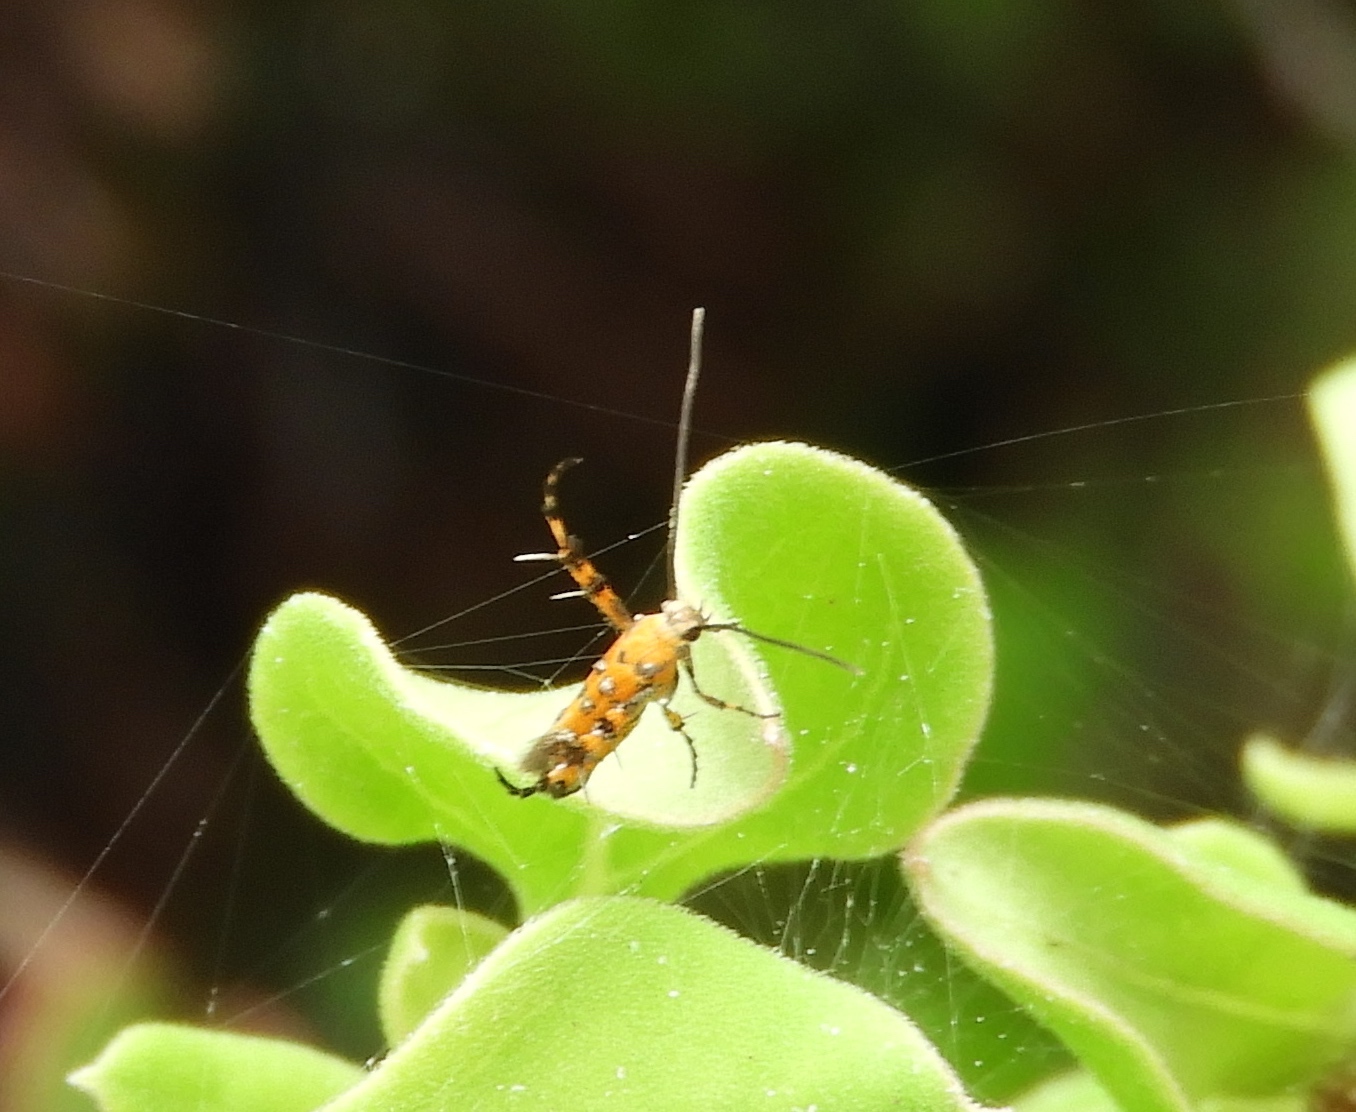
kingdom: Animalia
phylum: Arthropoda
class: Insecta
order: Lepidoptera
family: Heliodinidae
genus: Heliodines
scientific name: Heliodines
